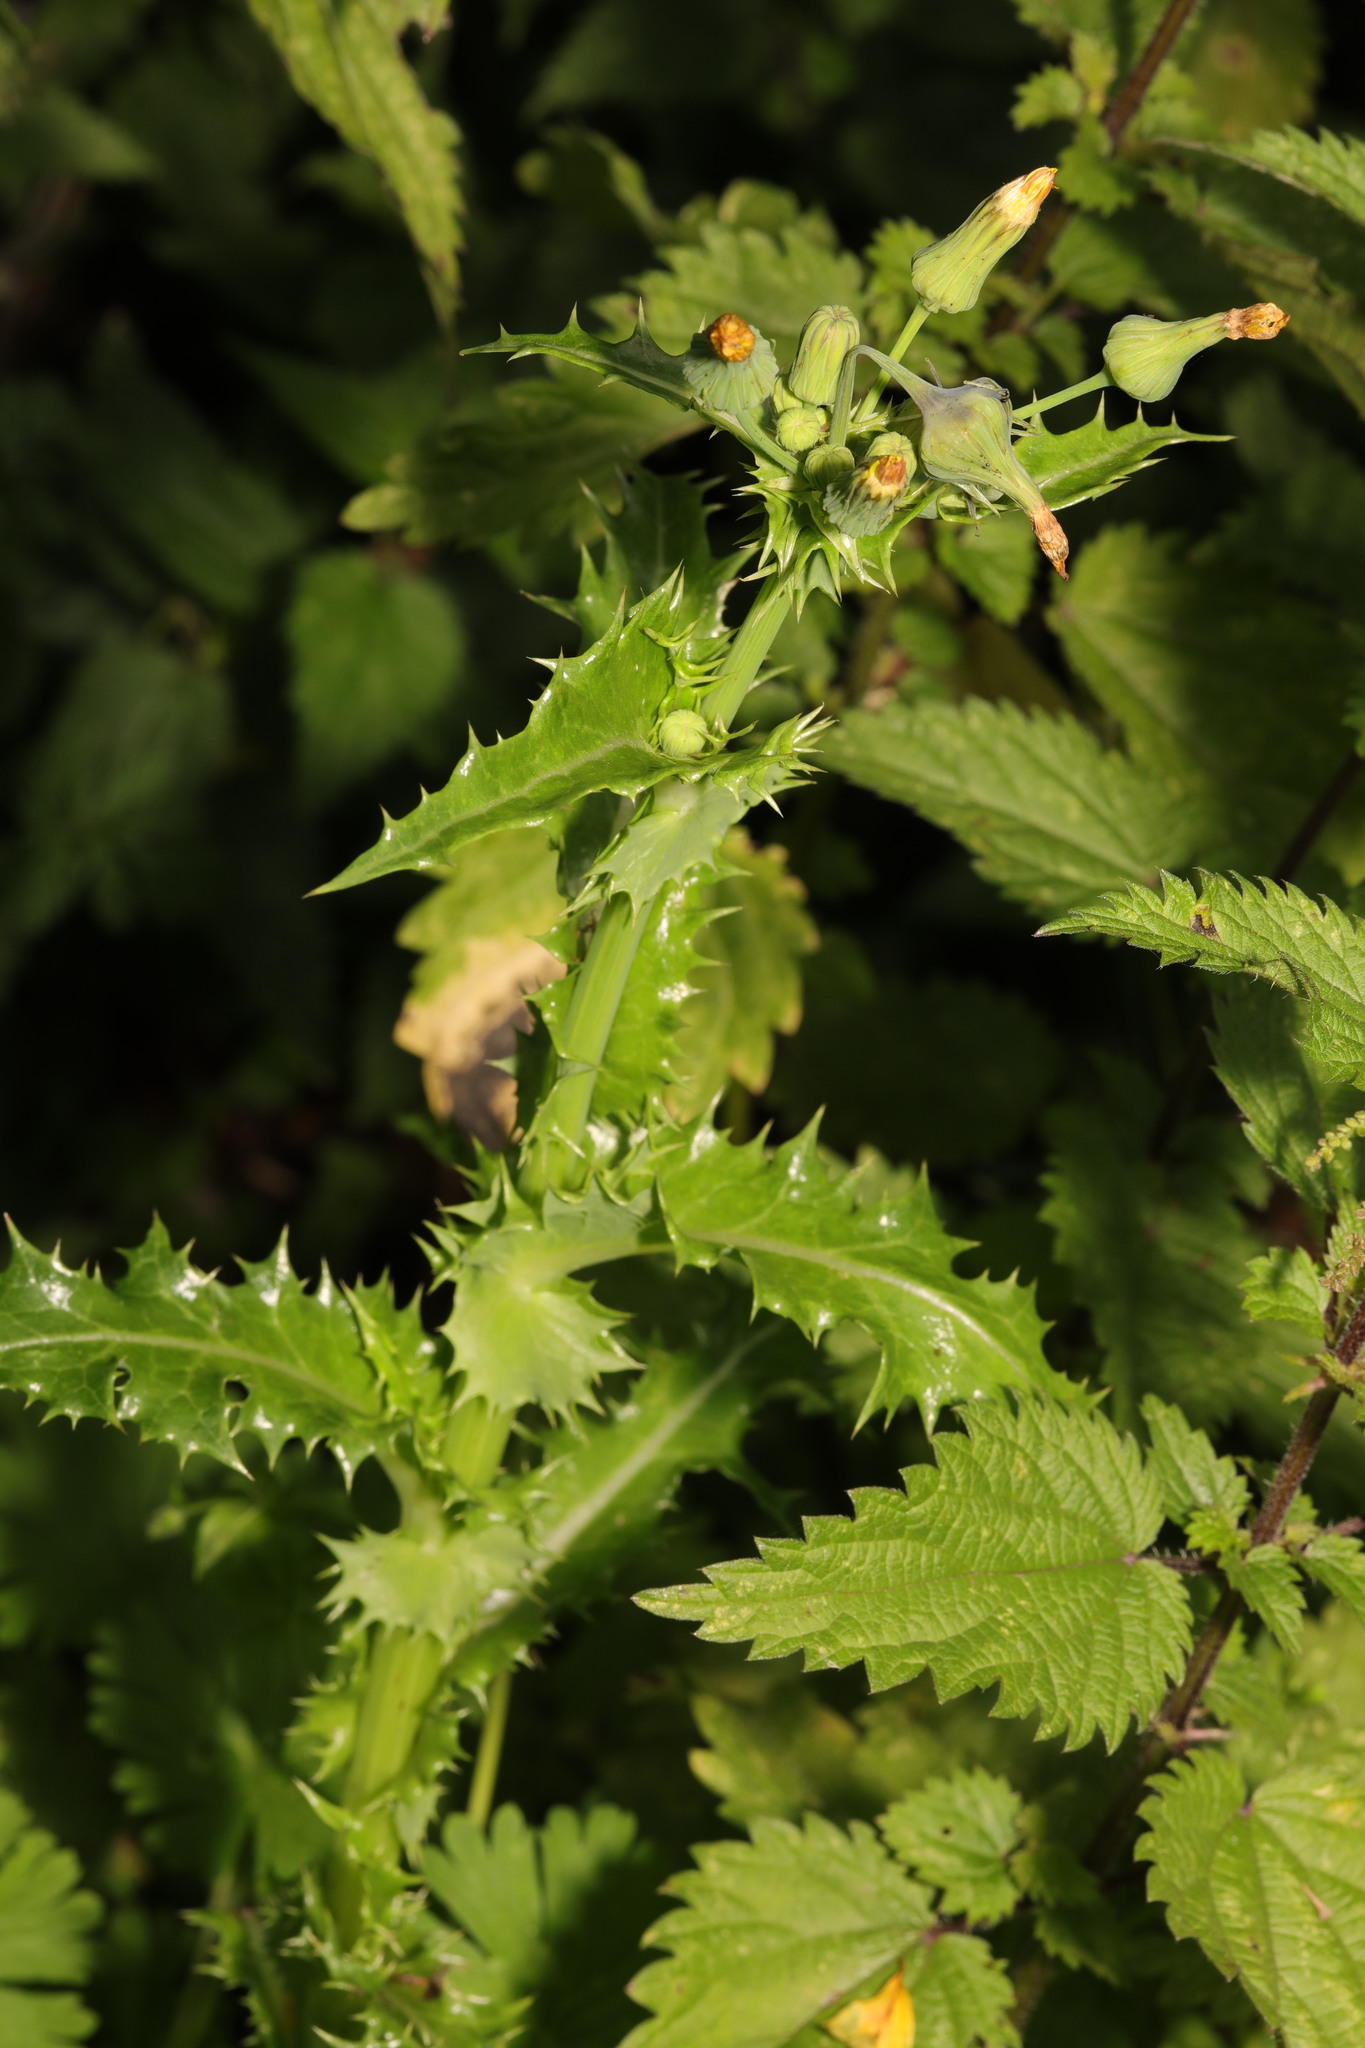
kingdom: Plantae
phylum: Tracheophyta
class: Magnoliopsida
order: Asterales
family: Asteraceae
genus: Sonchus
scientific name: Sonchus asper
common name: Prickly sow-thistle
